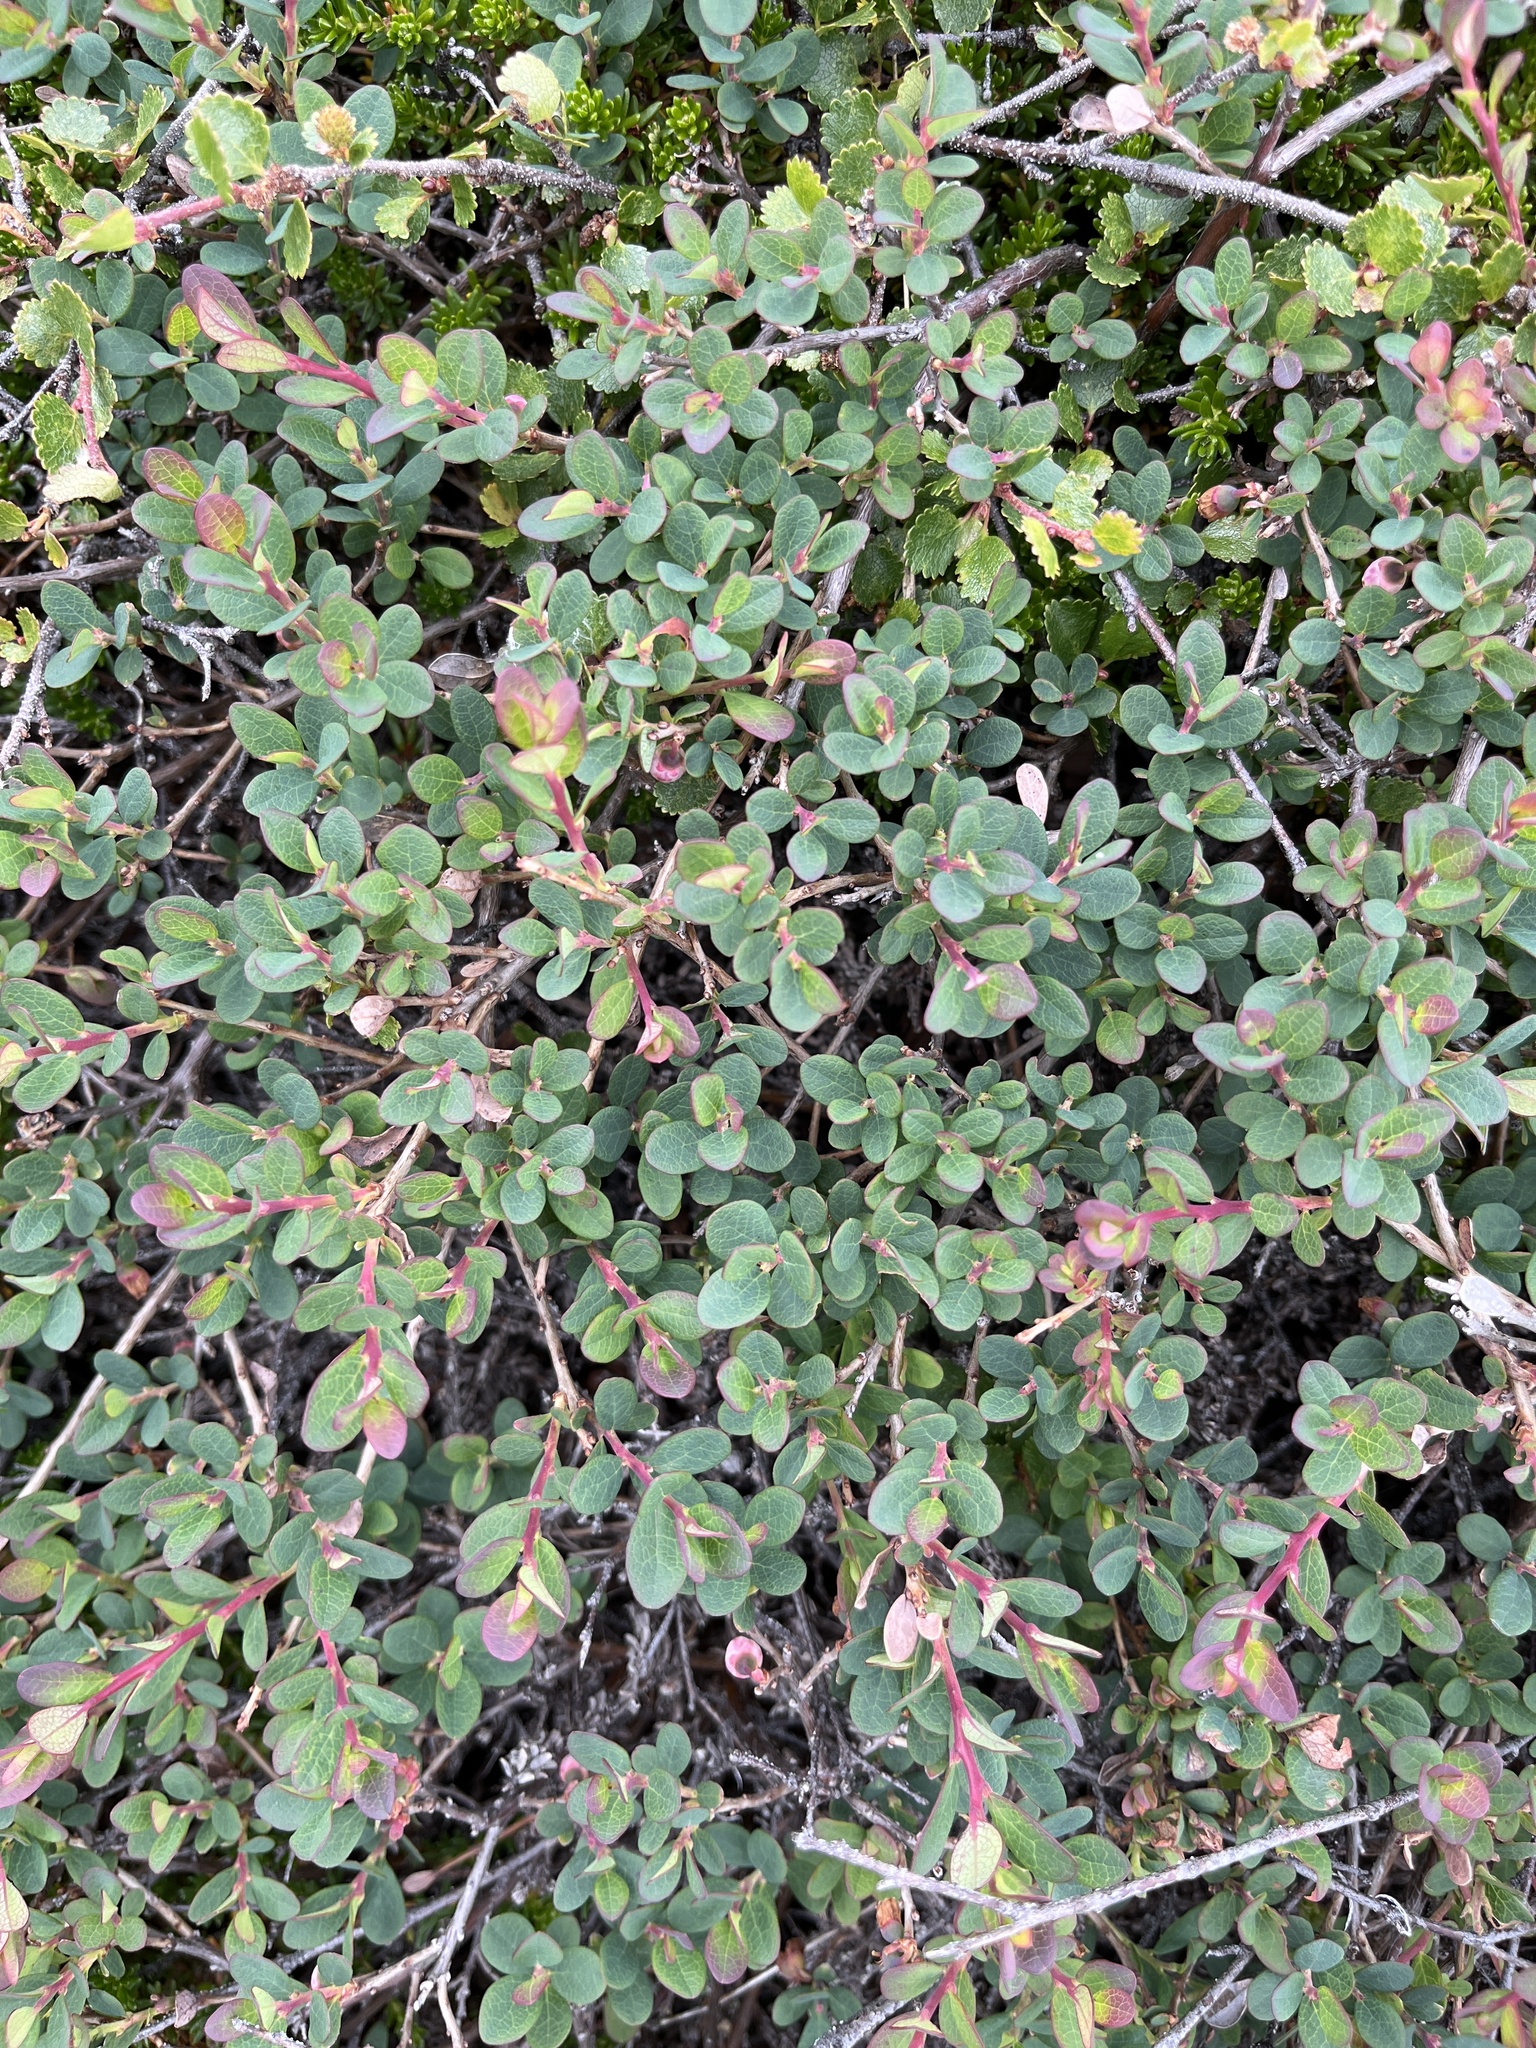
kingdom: Plantae
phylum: Tracheophyta
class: Magnoliopsida
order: Ericales
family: Ericaceae
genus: Vaccinium
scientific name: Vaccinium uliginosum
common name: Bog bilberry
